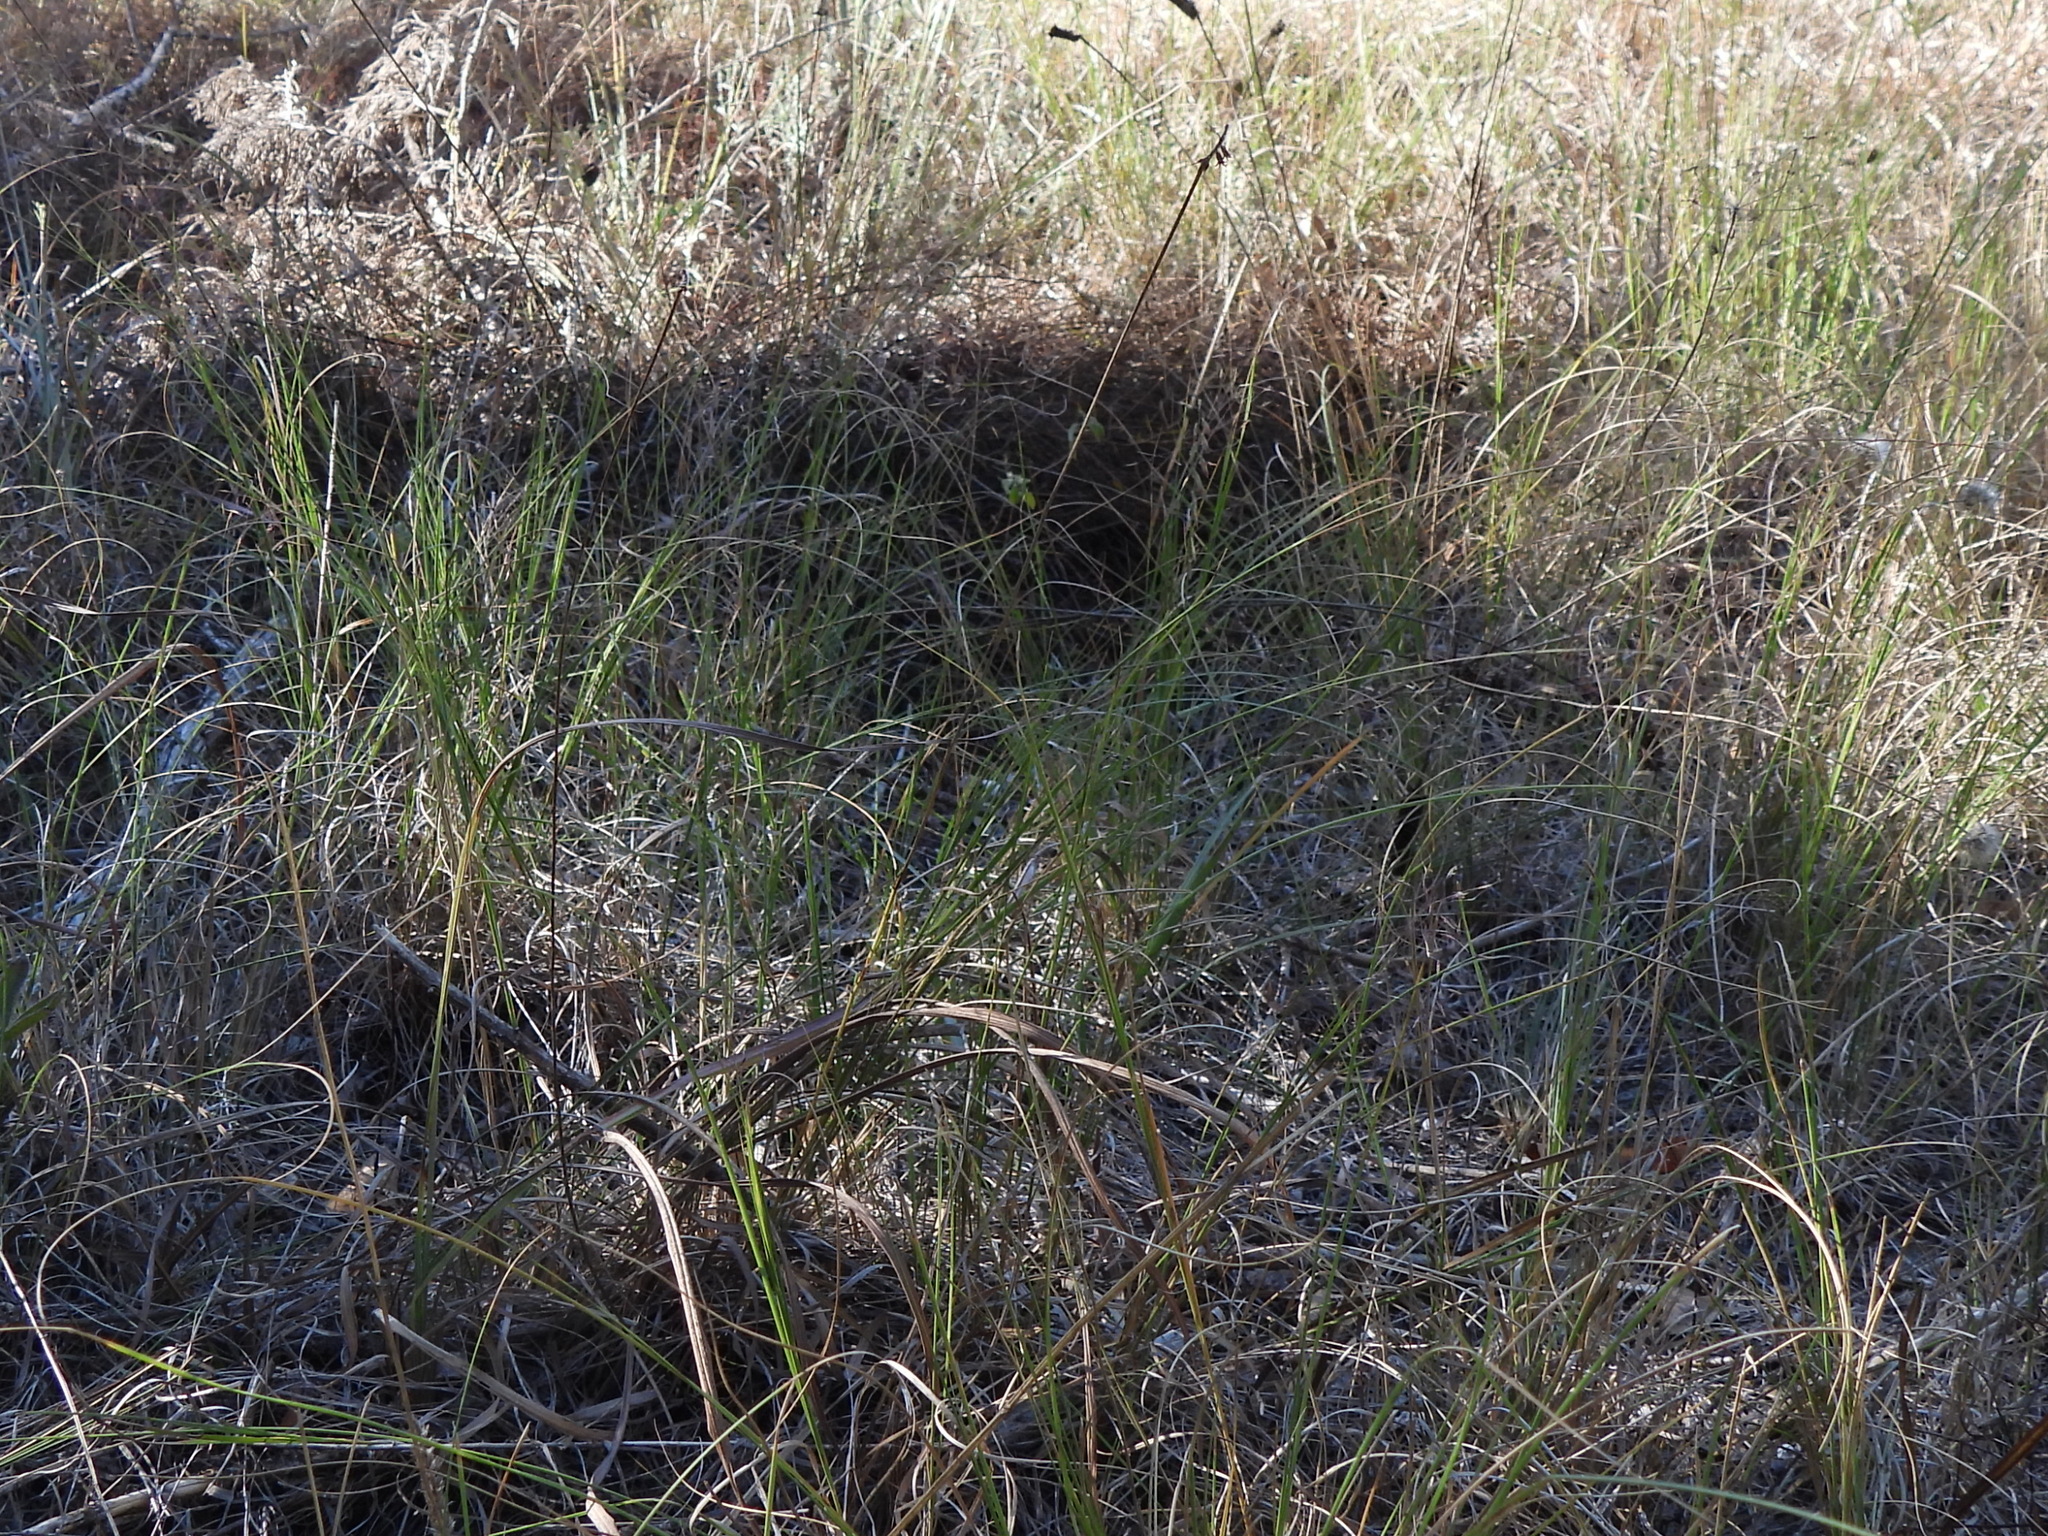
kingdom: Plantae
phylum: Tracheophyta
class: Liliopsida
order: Poales
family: Poaceae
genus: Muhlenbergia
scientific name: Muhlenbergia reverchonii
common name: Seep muhly
